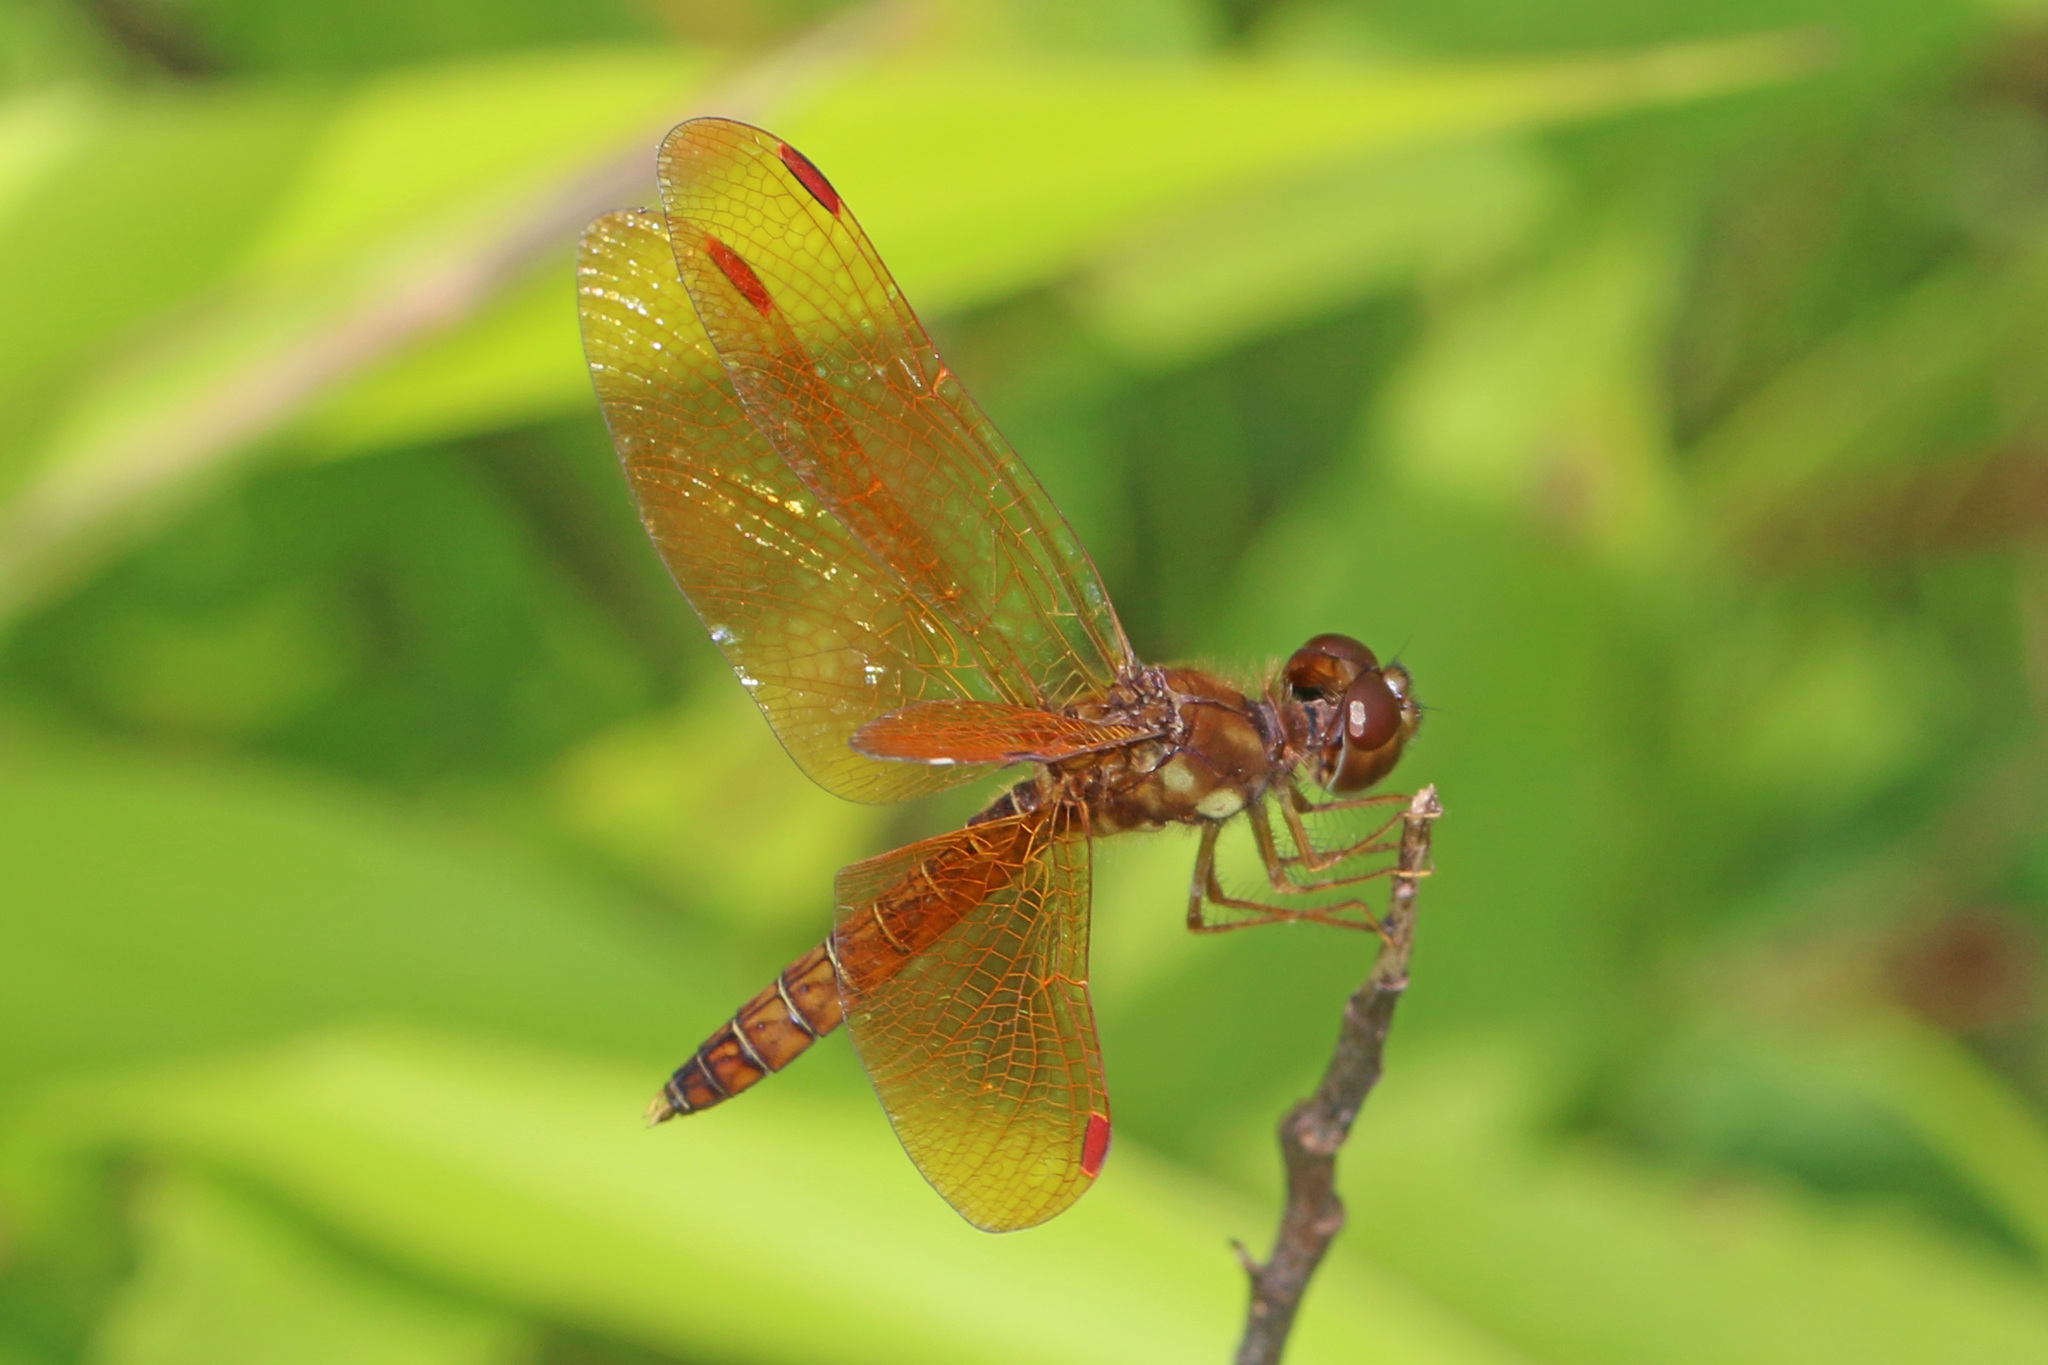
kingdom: Animalia
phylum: Arthropoda
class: Insecta
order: Odonata
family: Libellulidae
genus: Perithemis
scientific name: Perithemis tenera
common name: Eastern amberwing
